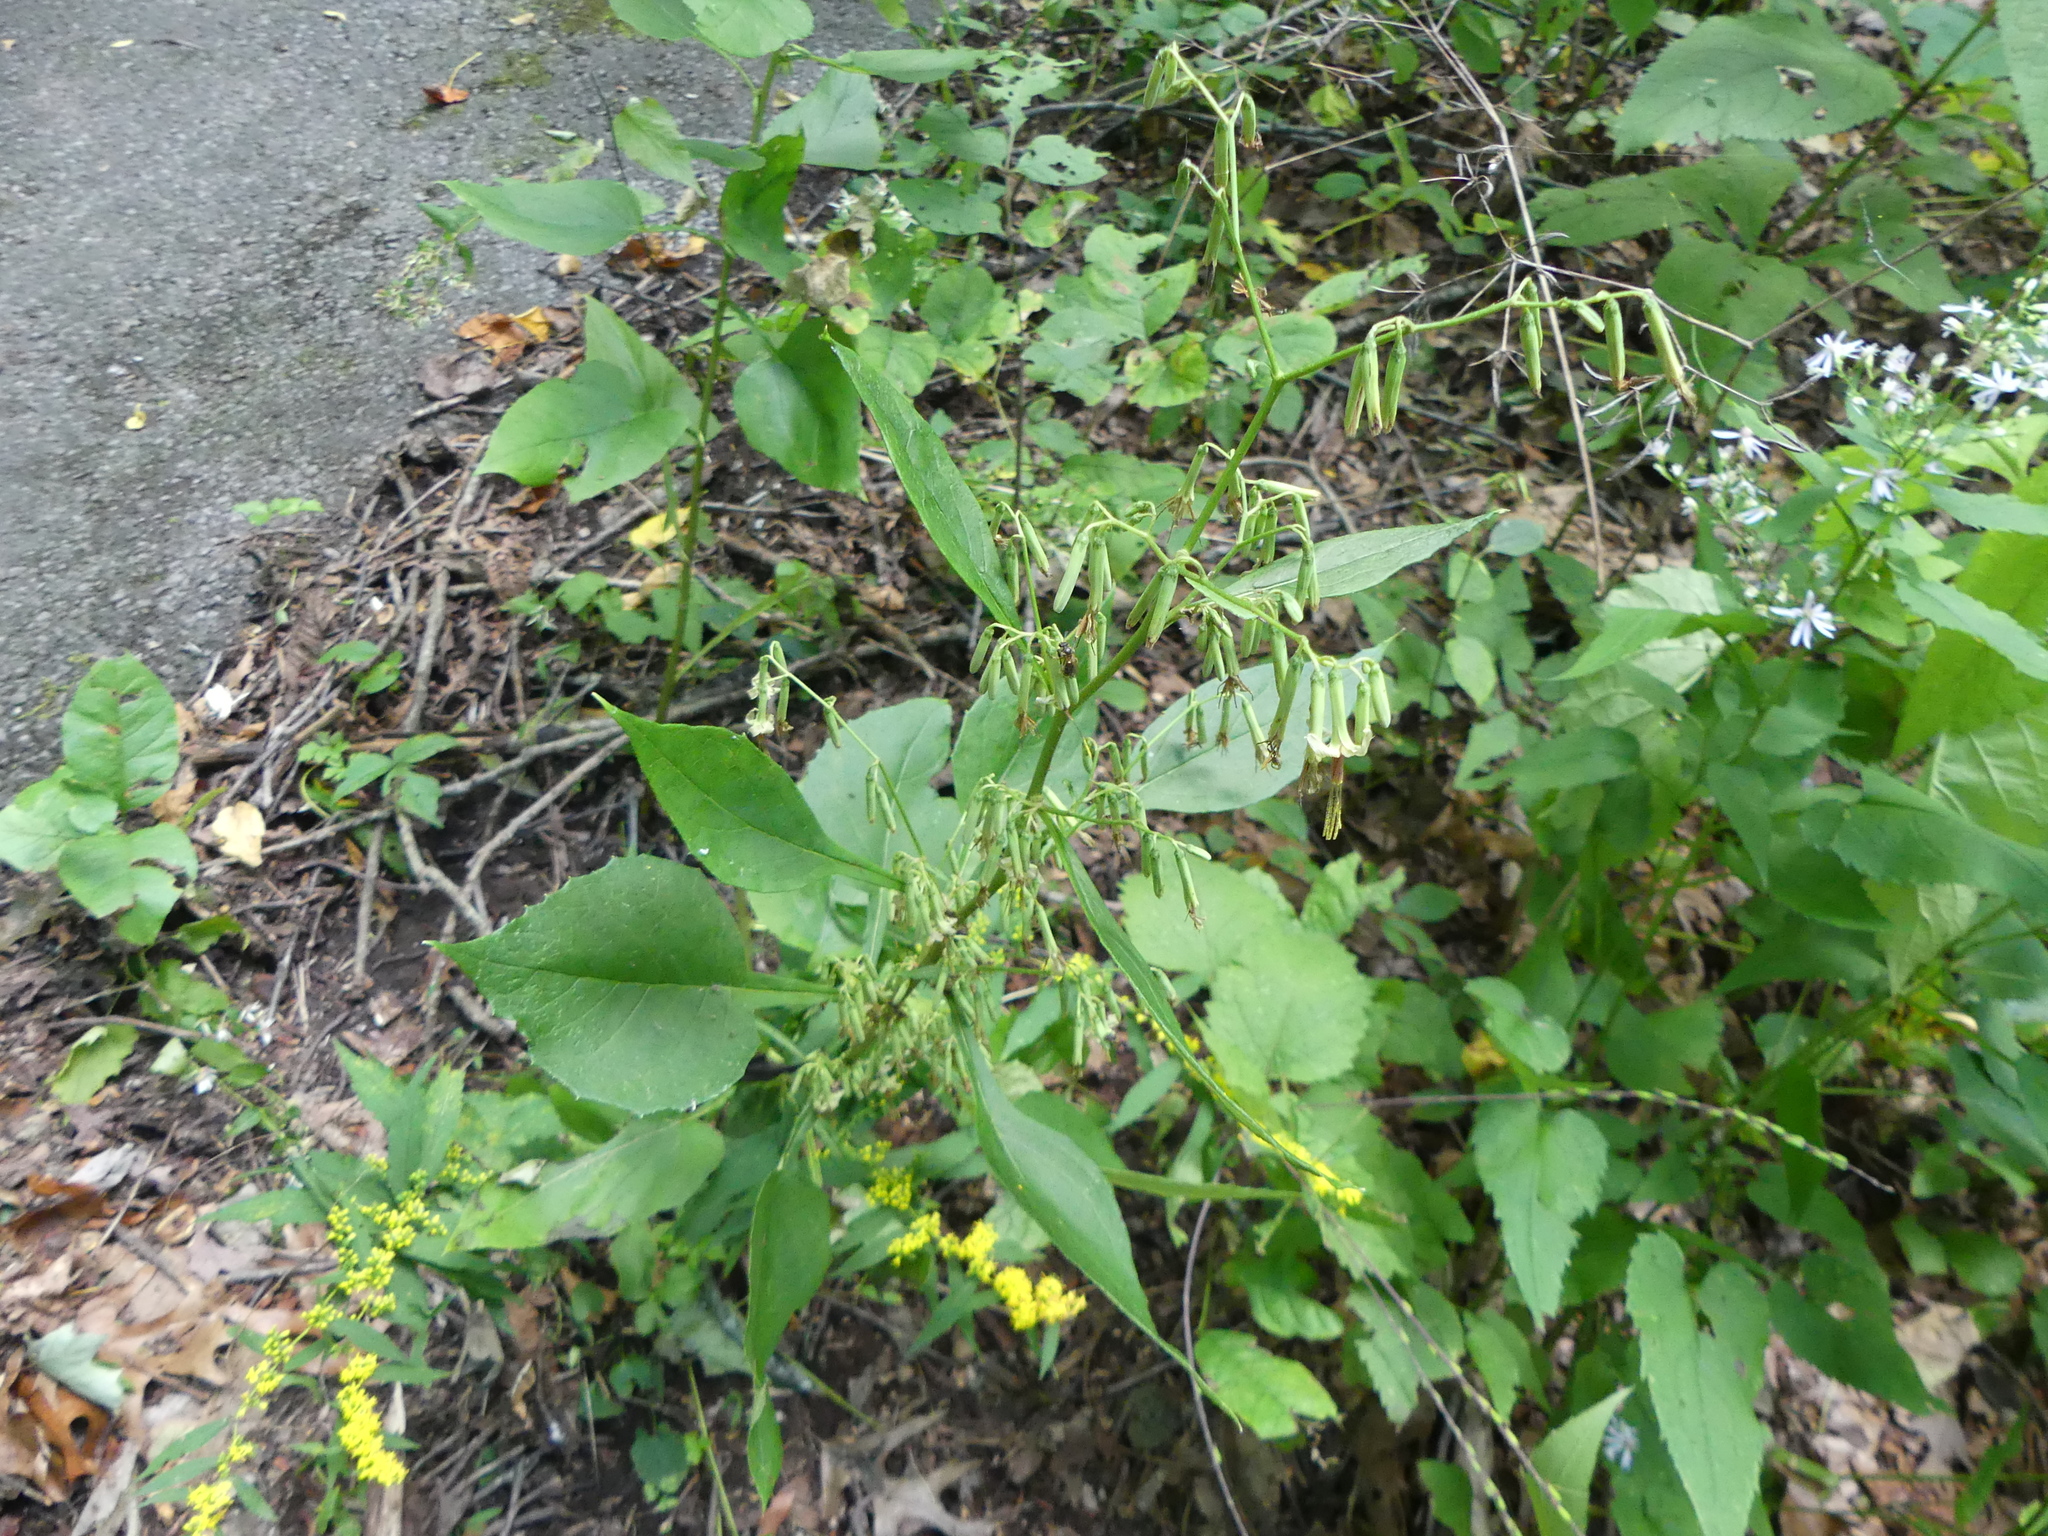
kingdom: Plantae
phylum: Tracheophyta
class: Magnoliopsida
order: Asterales
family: Asteraceae
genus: Nabalus
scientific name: Nabalus altissima
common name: Tall rattlesnakeroot
